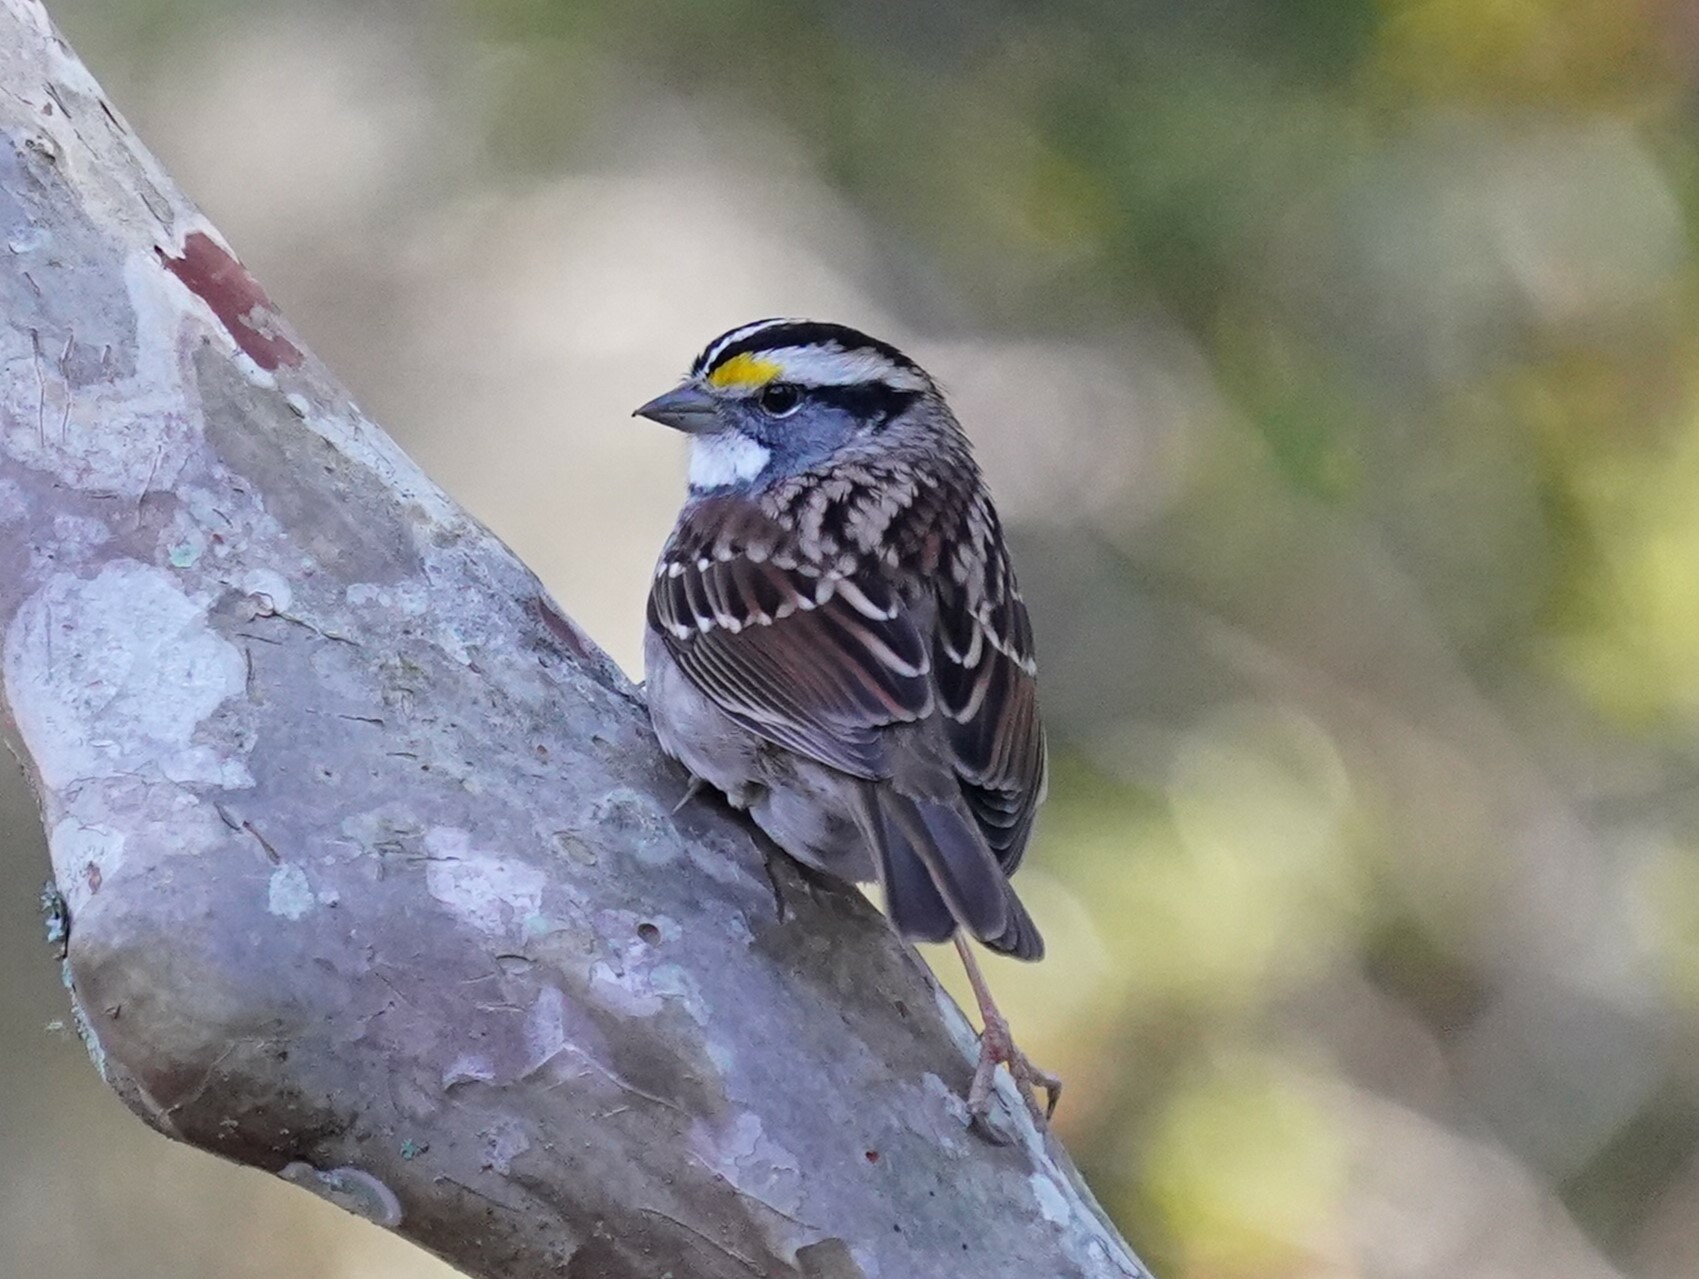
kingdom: Animalia
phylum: Chordata
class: Aves
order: Passeriformes
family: Passerellidae
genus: Zonotrichia
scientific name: Zonotrichia albicollis
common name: White-throated sparrow
